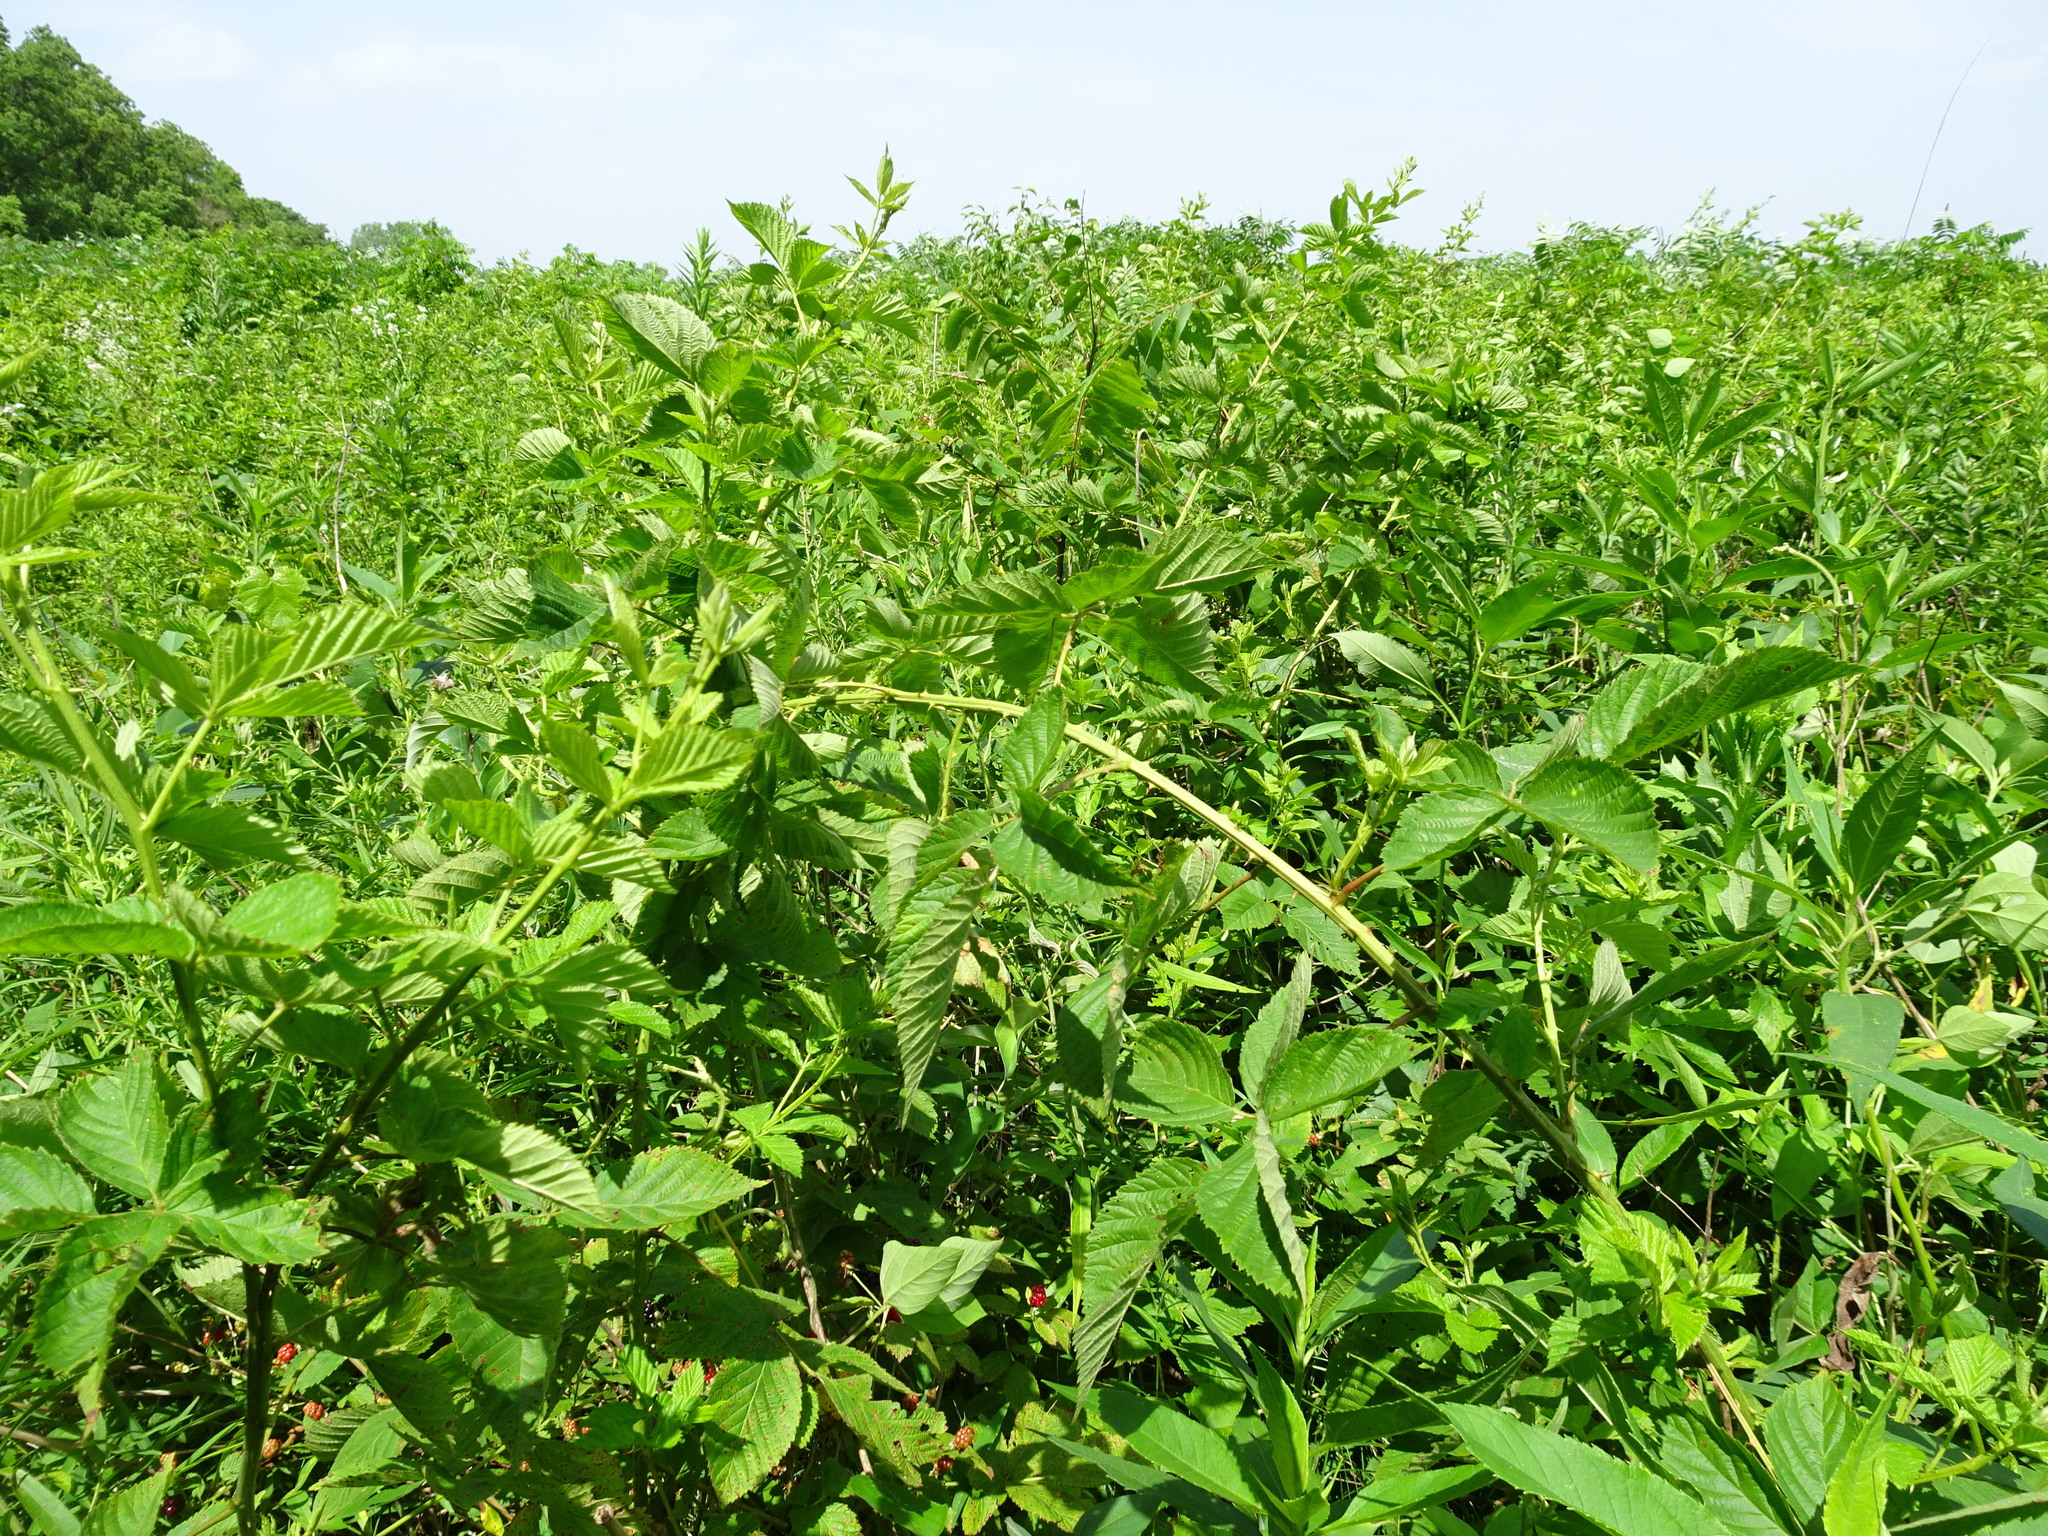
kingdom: Plantae
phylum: Tracheophyta
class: Magnoliopsida
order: Rosales
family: Rosaceae
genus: Rubus
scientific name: Rubus pascuus
